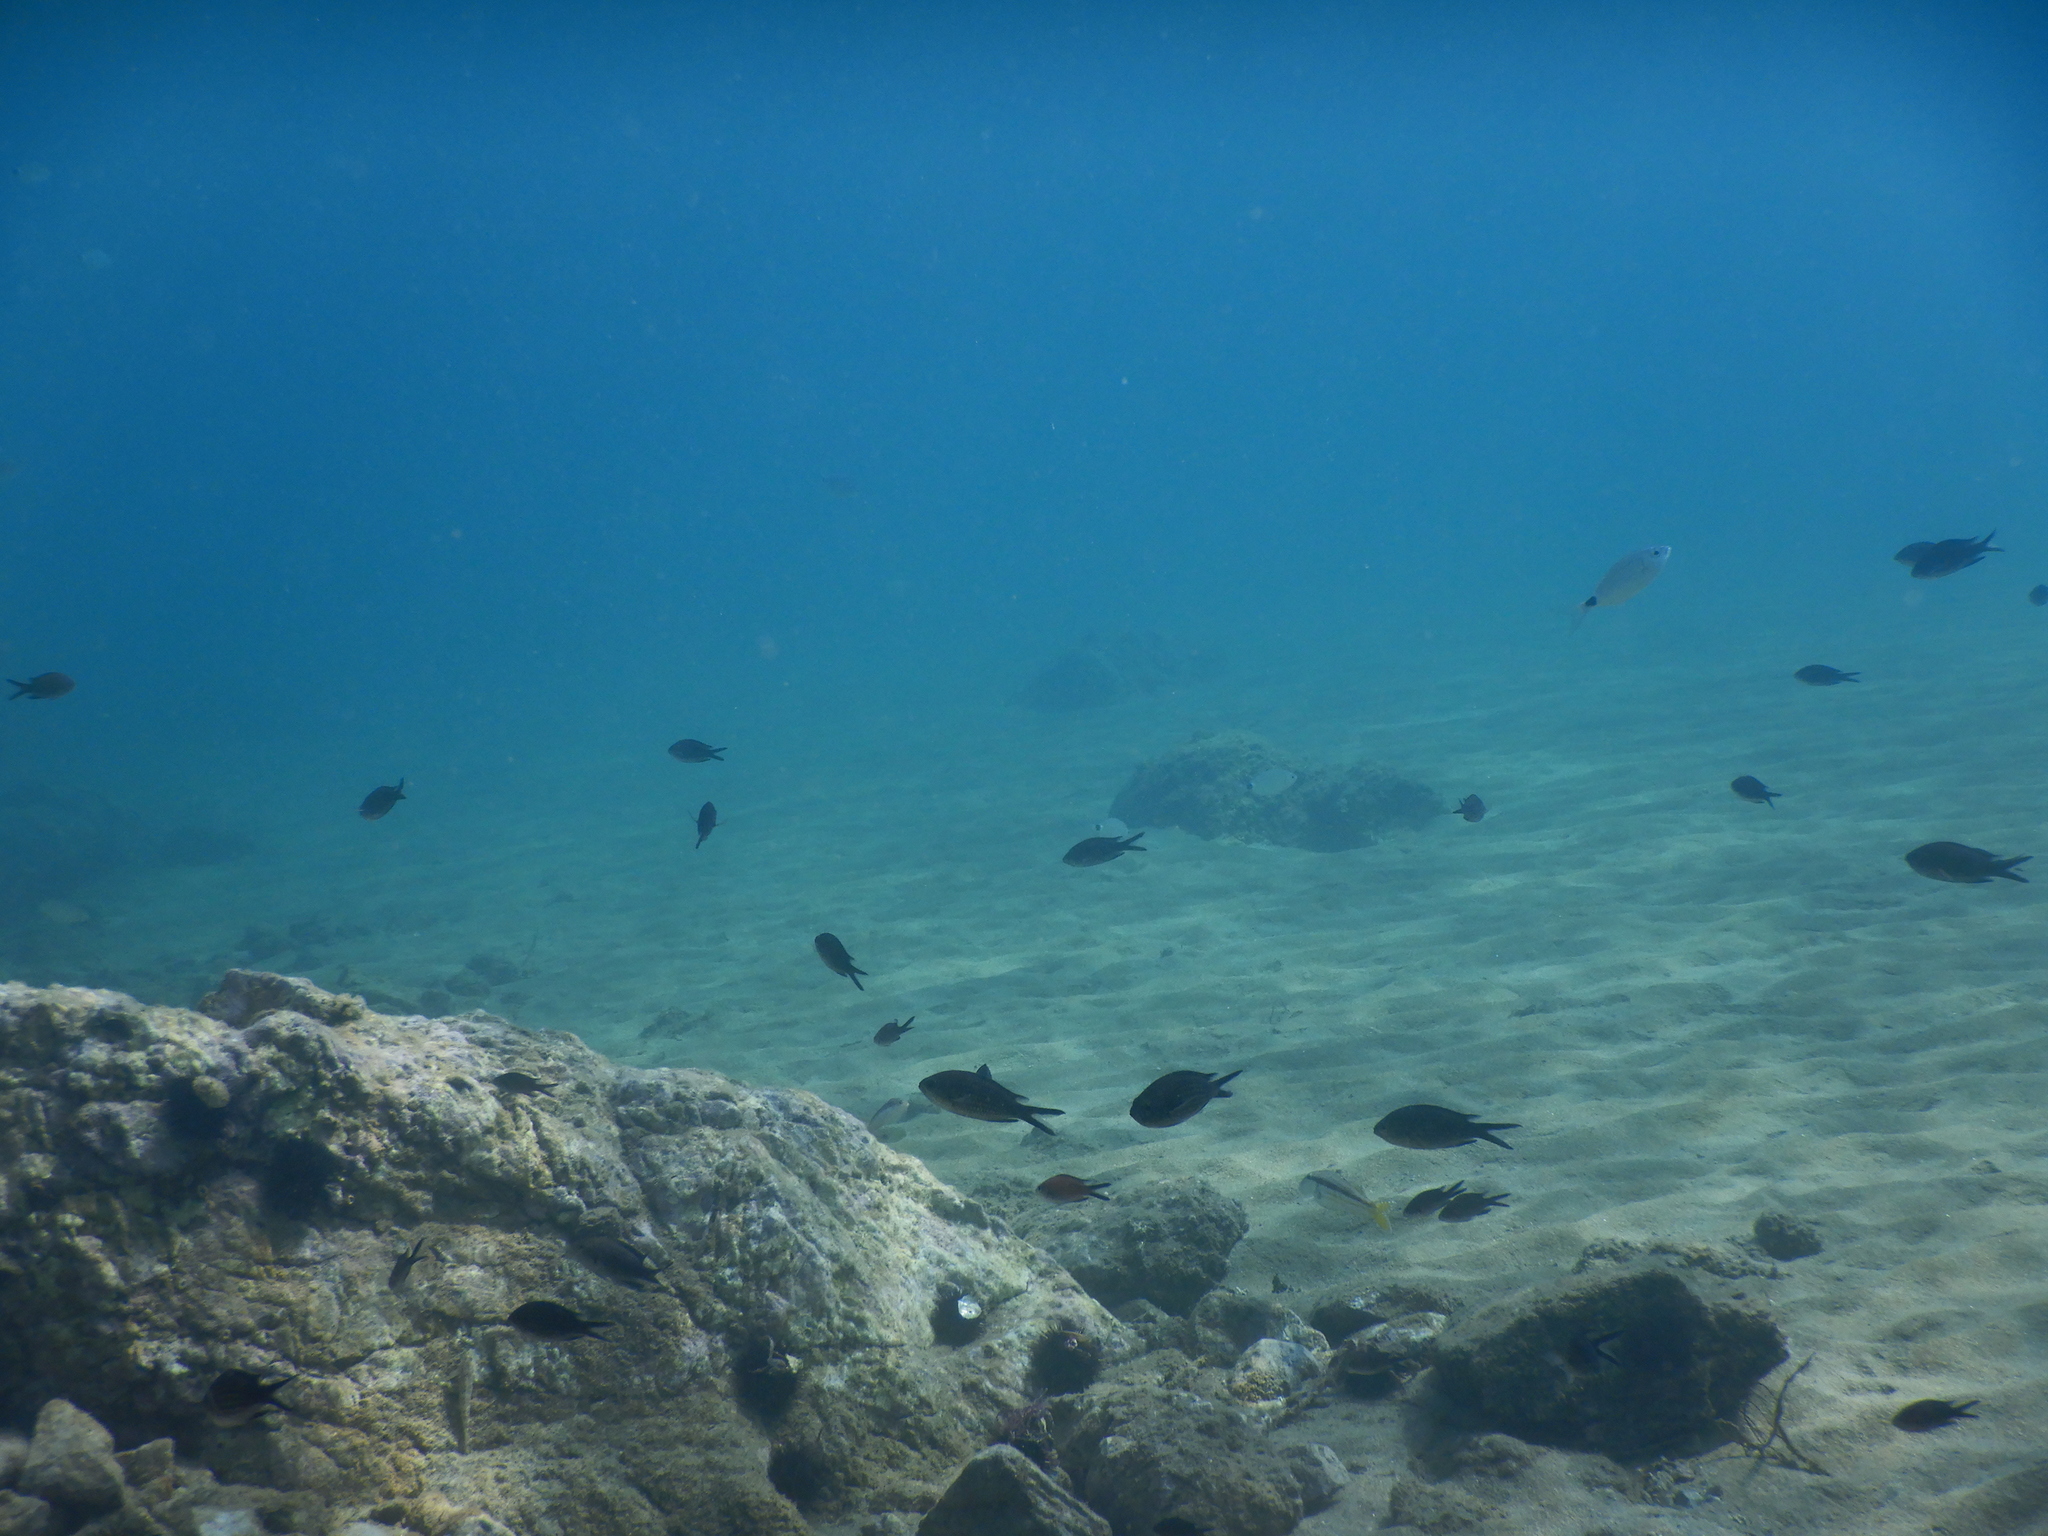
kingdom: Animalia
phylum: Chordata
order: Perciformes
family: Pomacentridae
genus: Chromis
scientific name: Chromis chromis
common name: Damselfish
